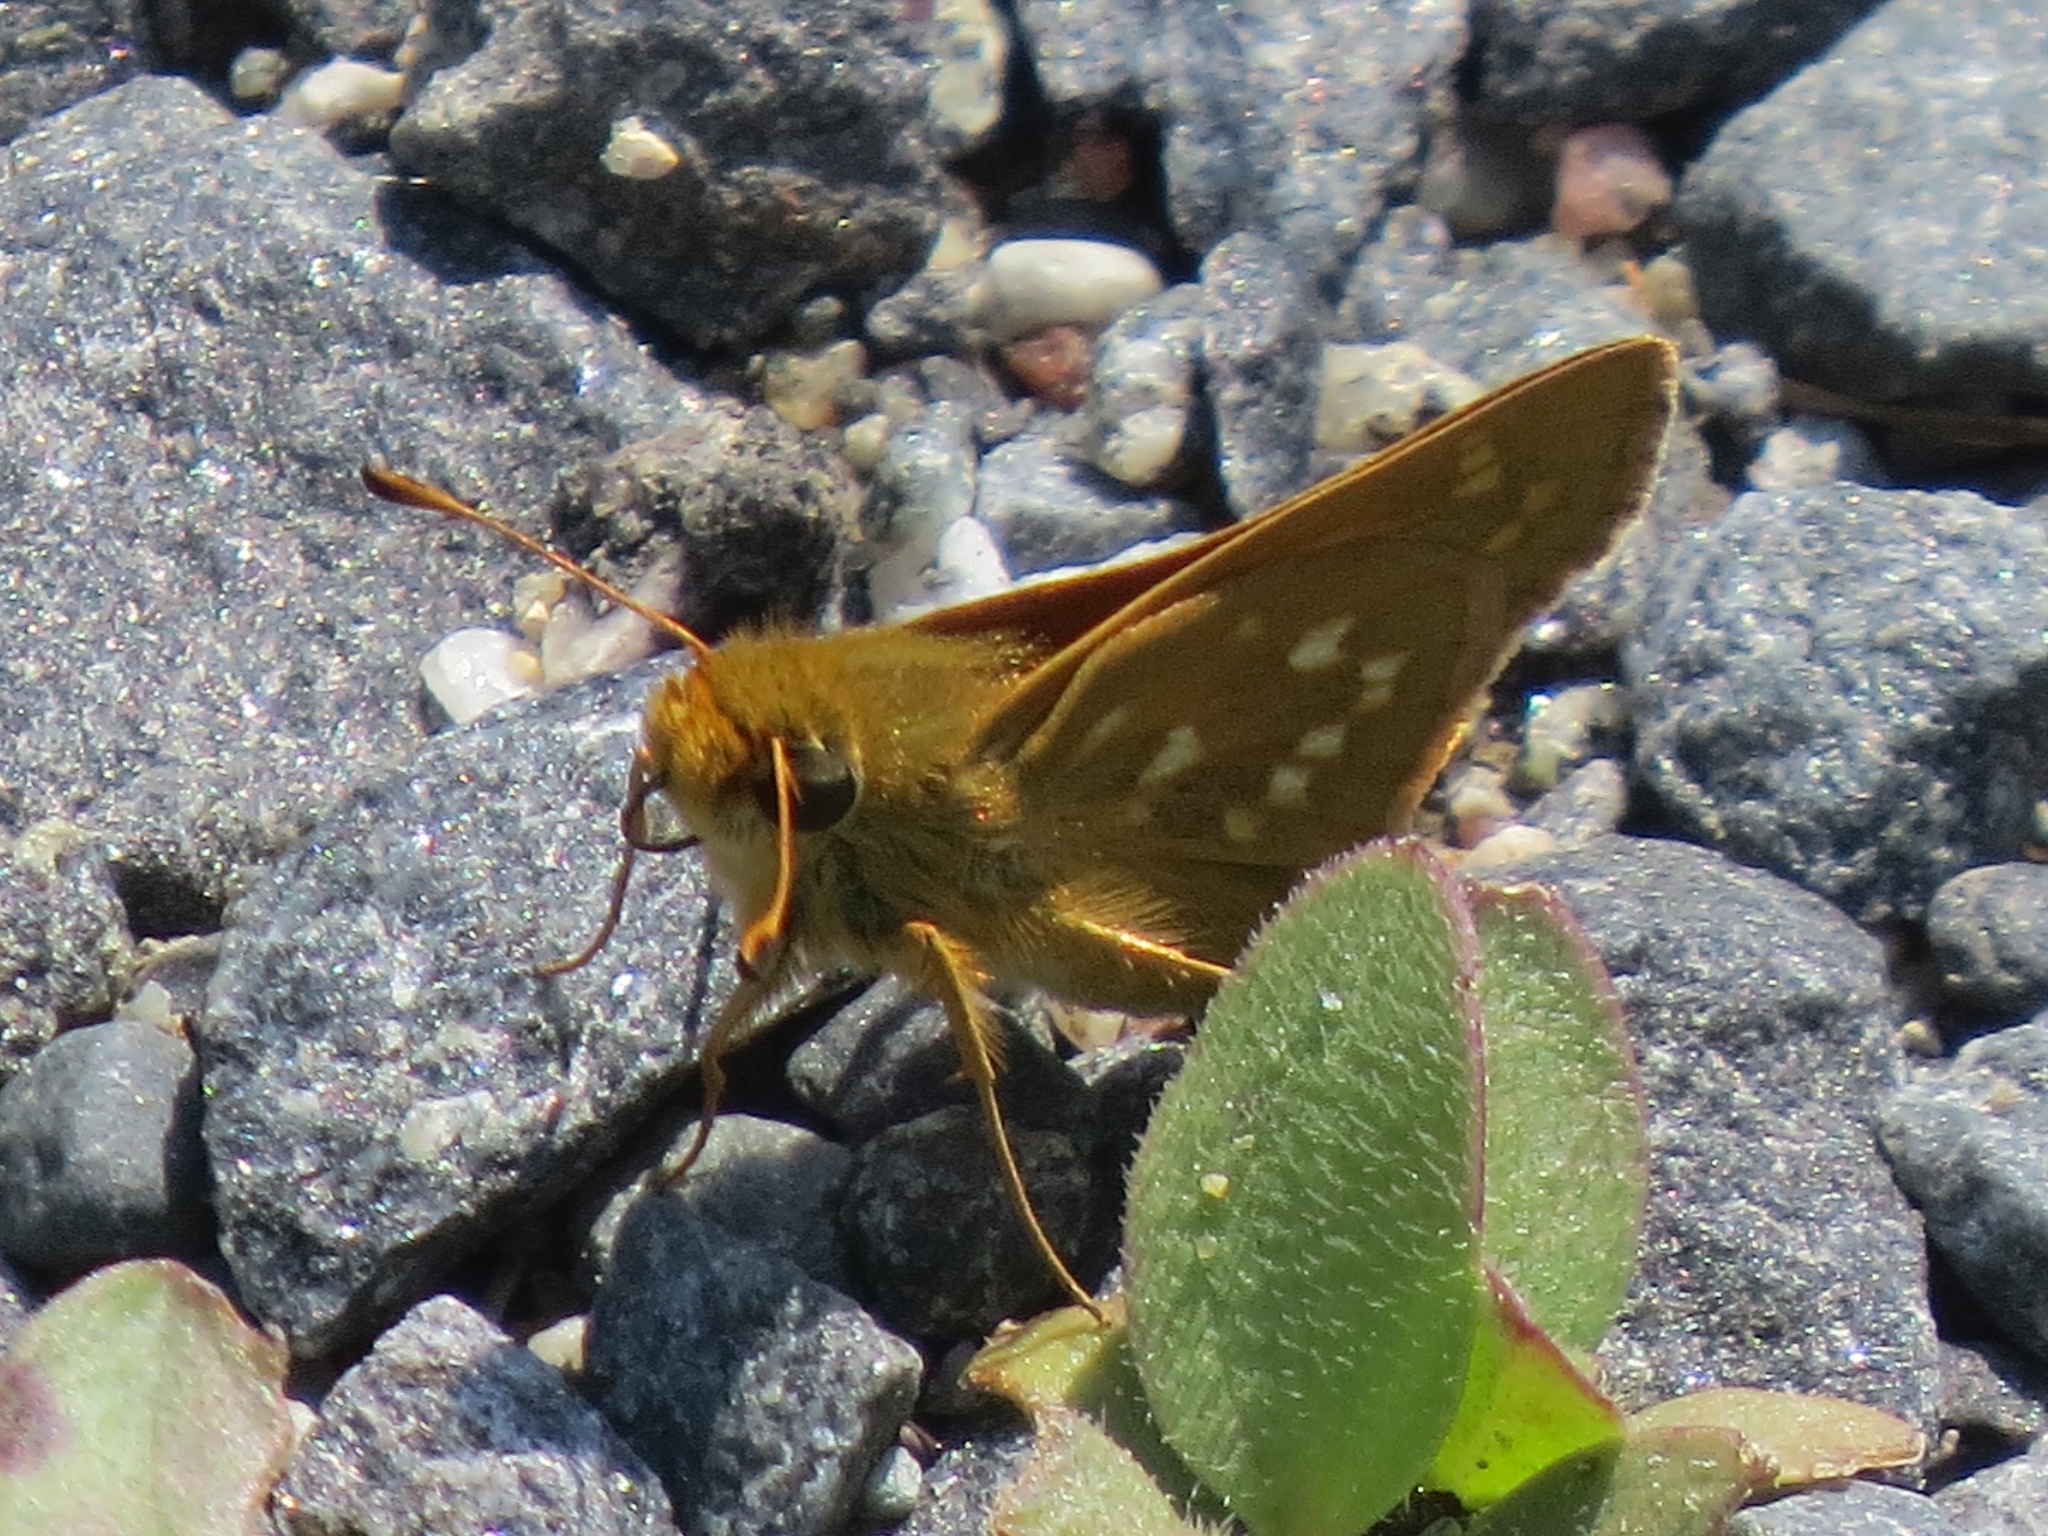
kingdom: Animalia
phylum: Arthropoda
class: Insecta
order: Lepidoptera
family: Hesperiidae
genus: Hesperia
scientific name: Hesperia comma
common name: Common branded skipper
